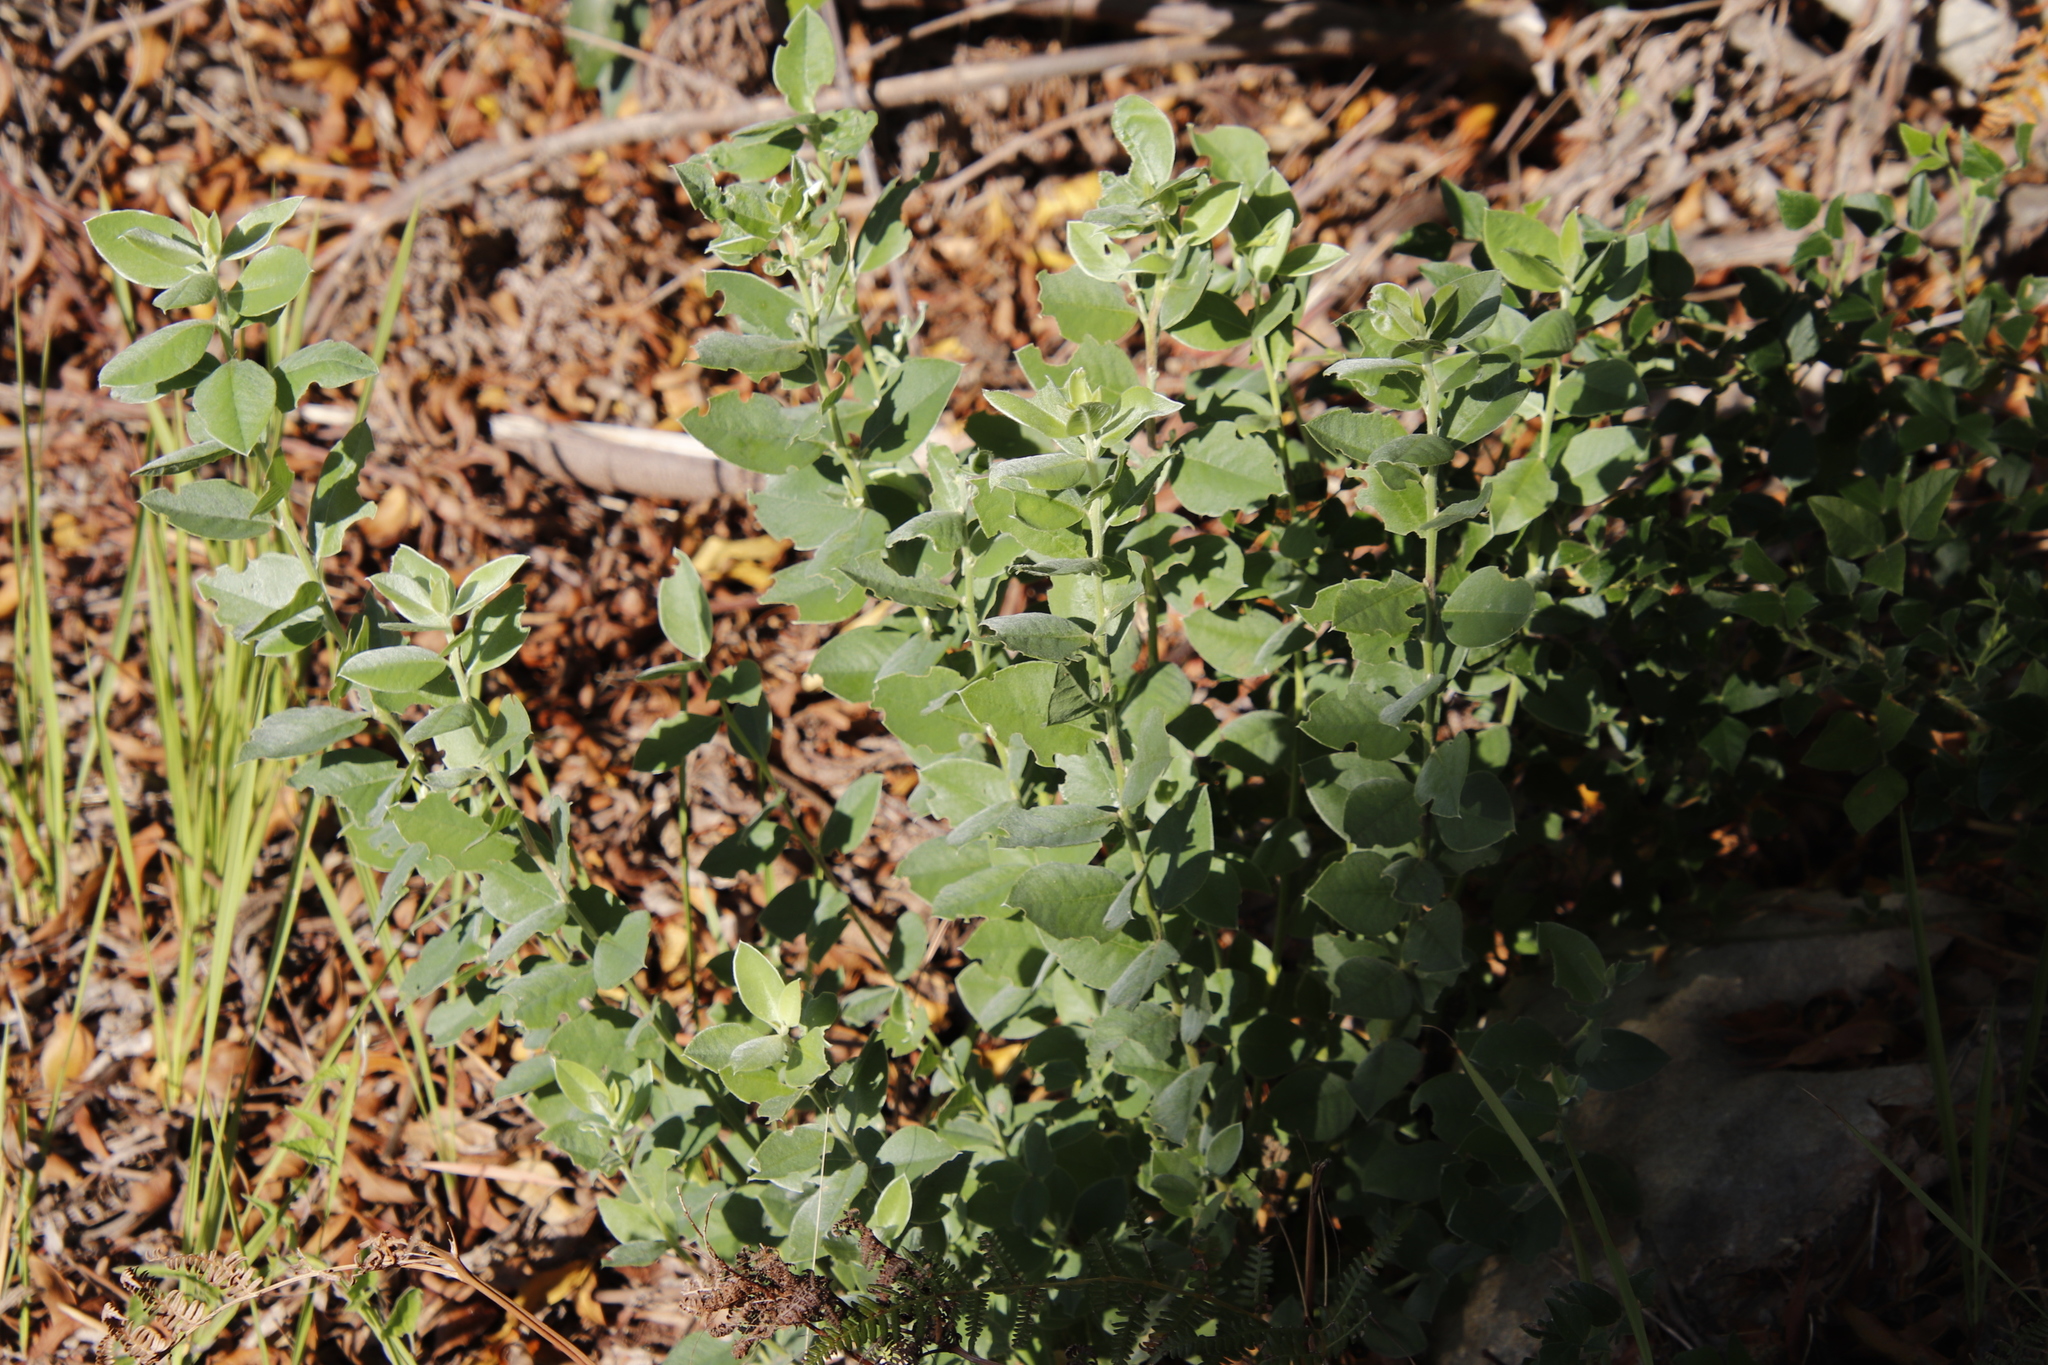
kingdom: Plantae
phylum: Tracheophyta
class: Magnoliopsida
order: Fabales
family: Fabaceae
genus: Podalyria
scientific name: Podalyria calyptrata
